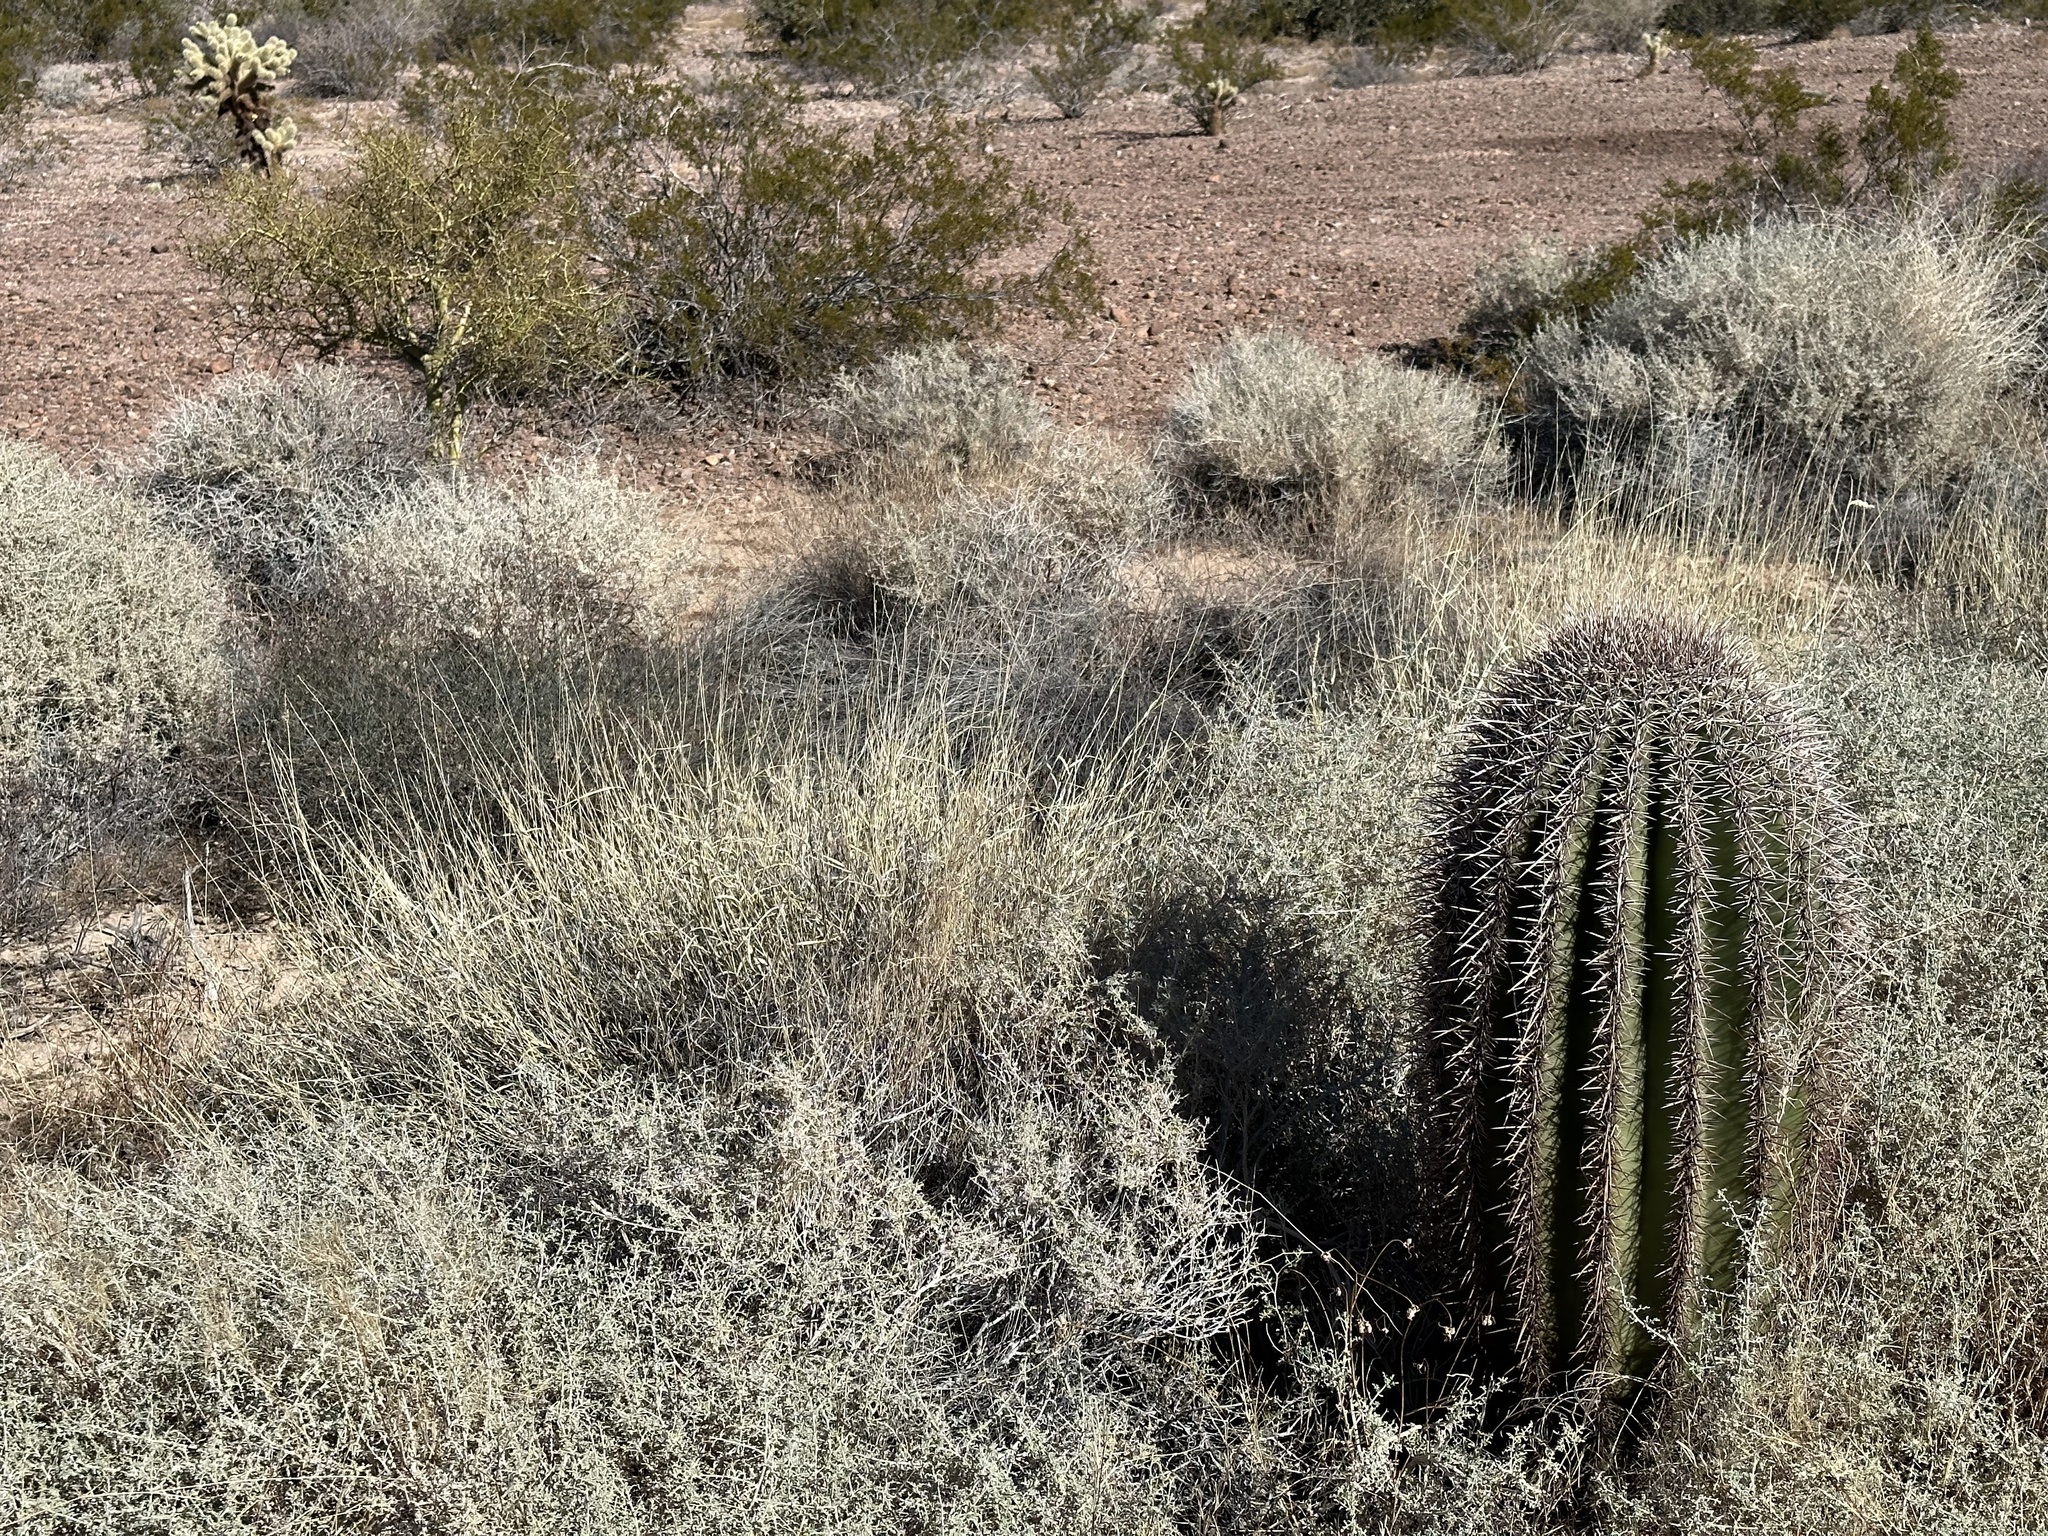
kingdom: Plantae
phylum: Tracheophyta
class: Magnoliopsida
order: Caryophyllales
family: Cactaceae
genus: Carnegiea
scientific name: Carnegiea gigantea
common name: Saguaro
